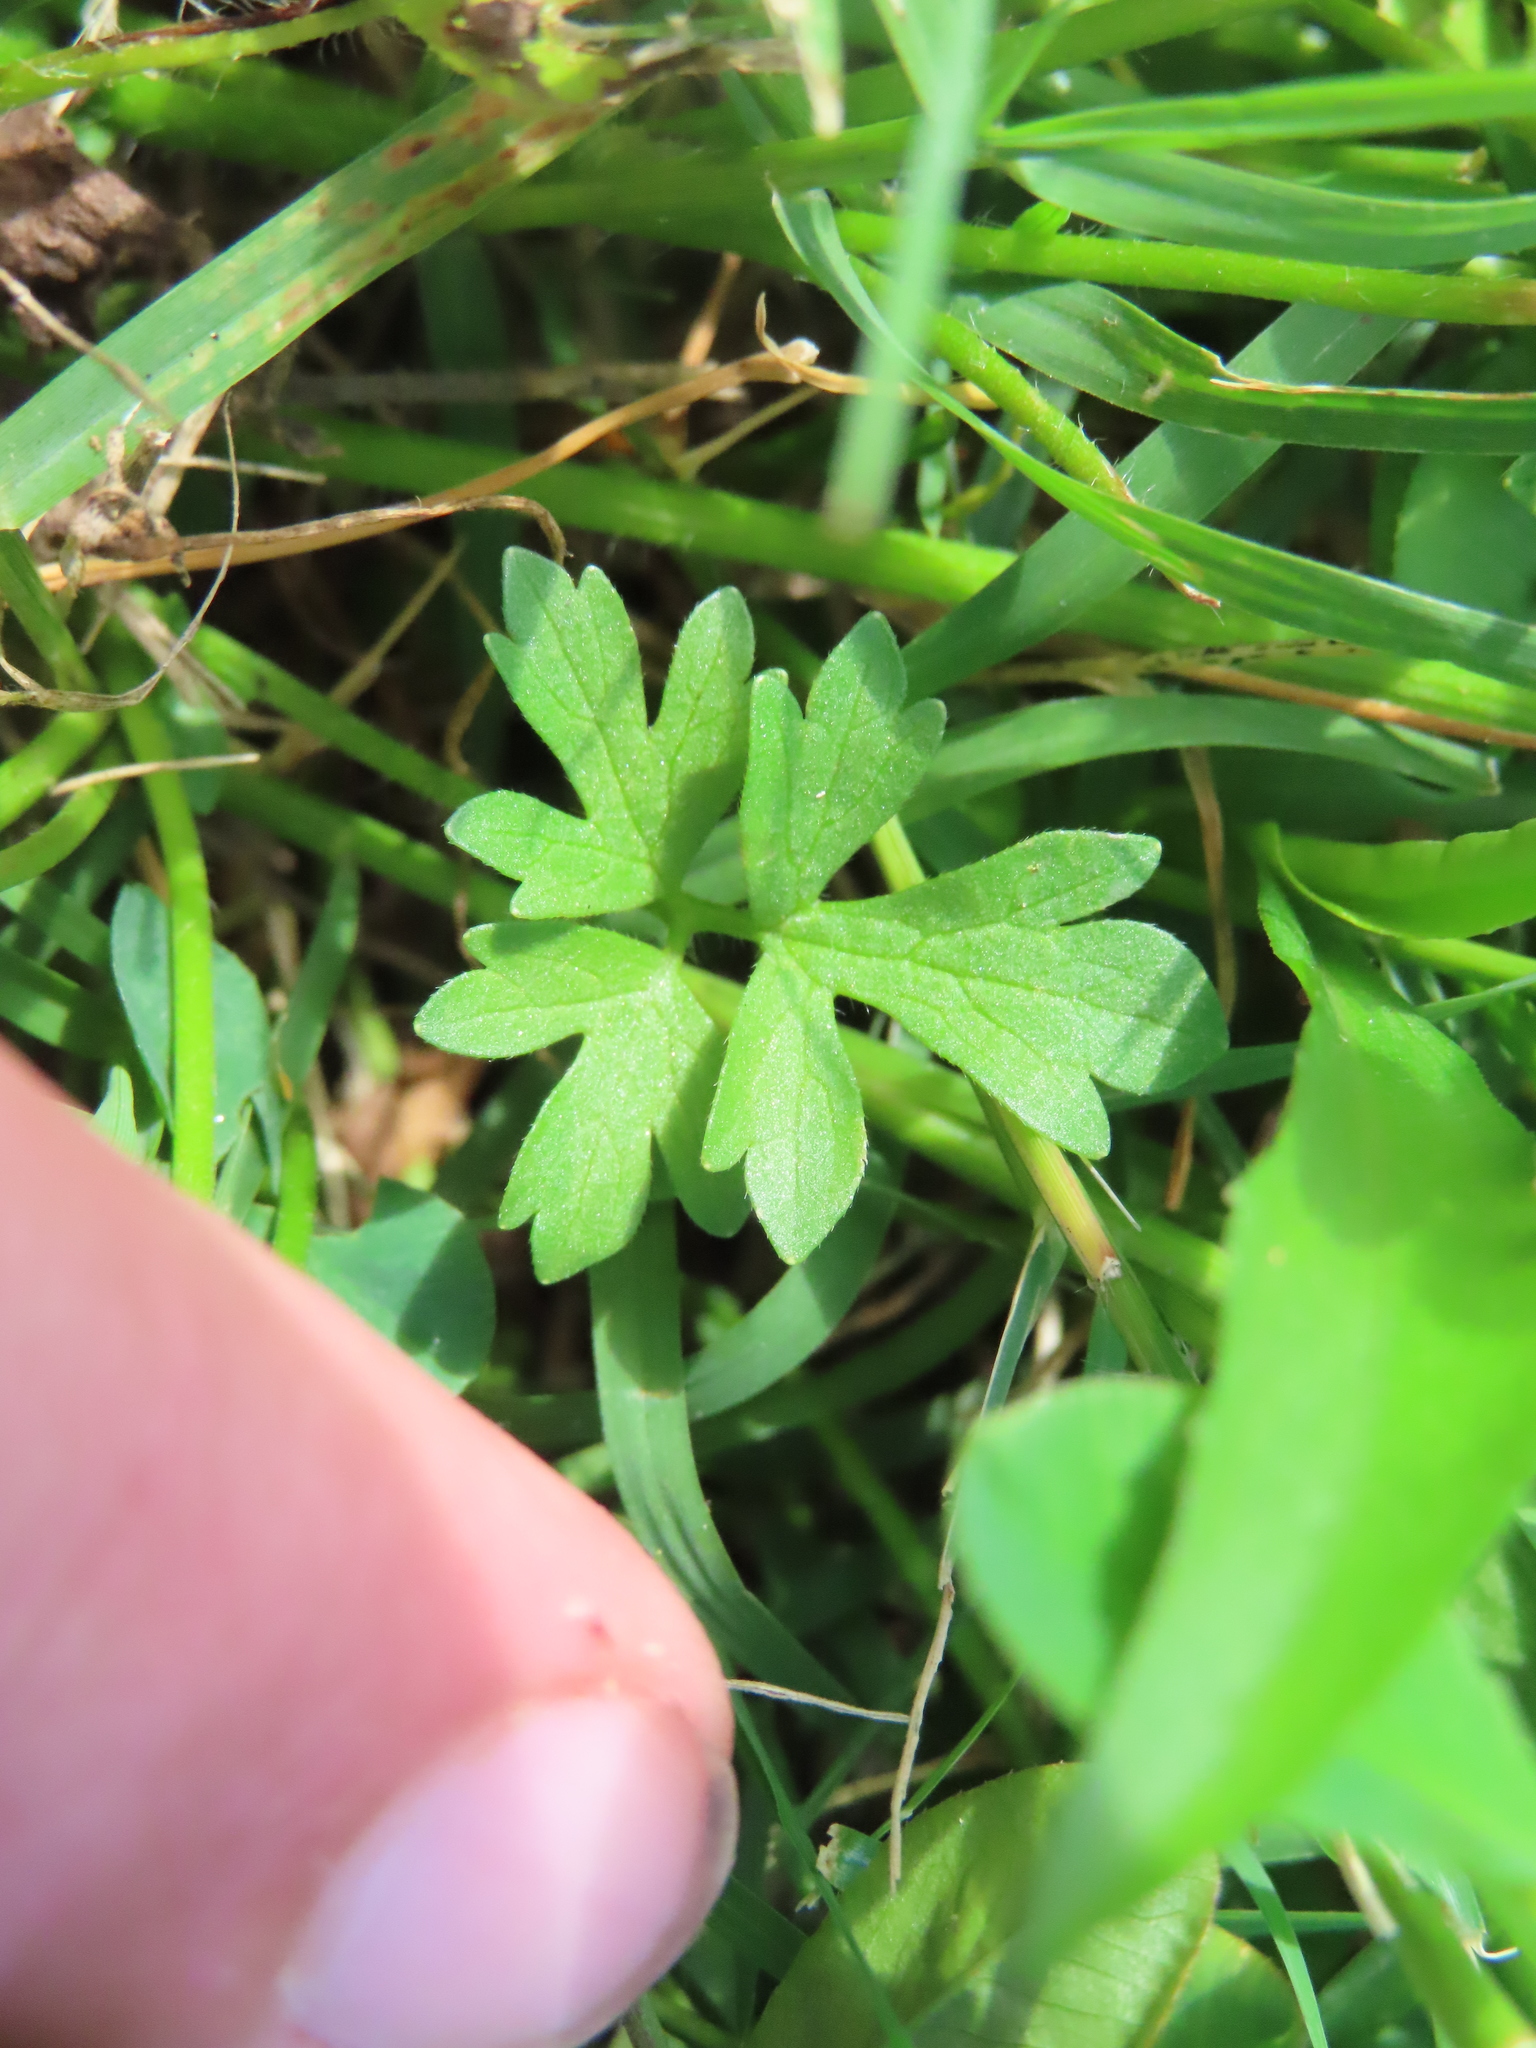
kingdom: Plantae
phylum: Tracheophyta
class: Magnoliopsida
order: Ranunculales
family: Ranunculaceae
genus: Ranunculus
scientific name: Ranunculus sardous
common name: Hairy buttercup
